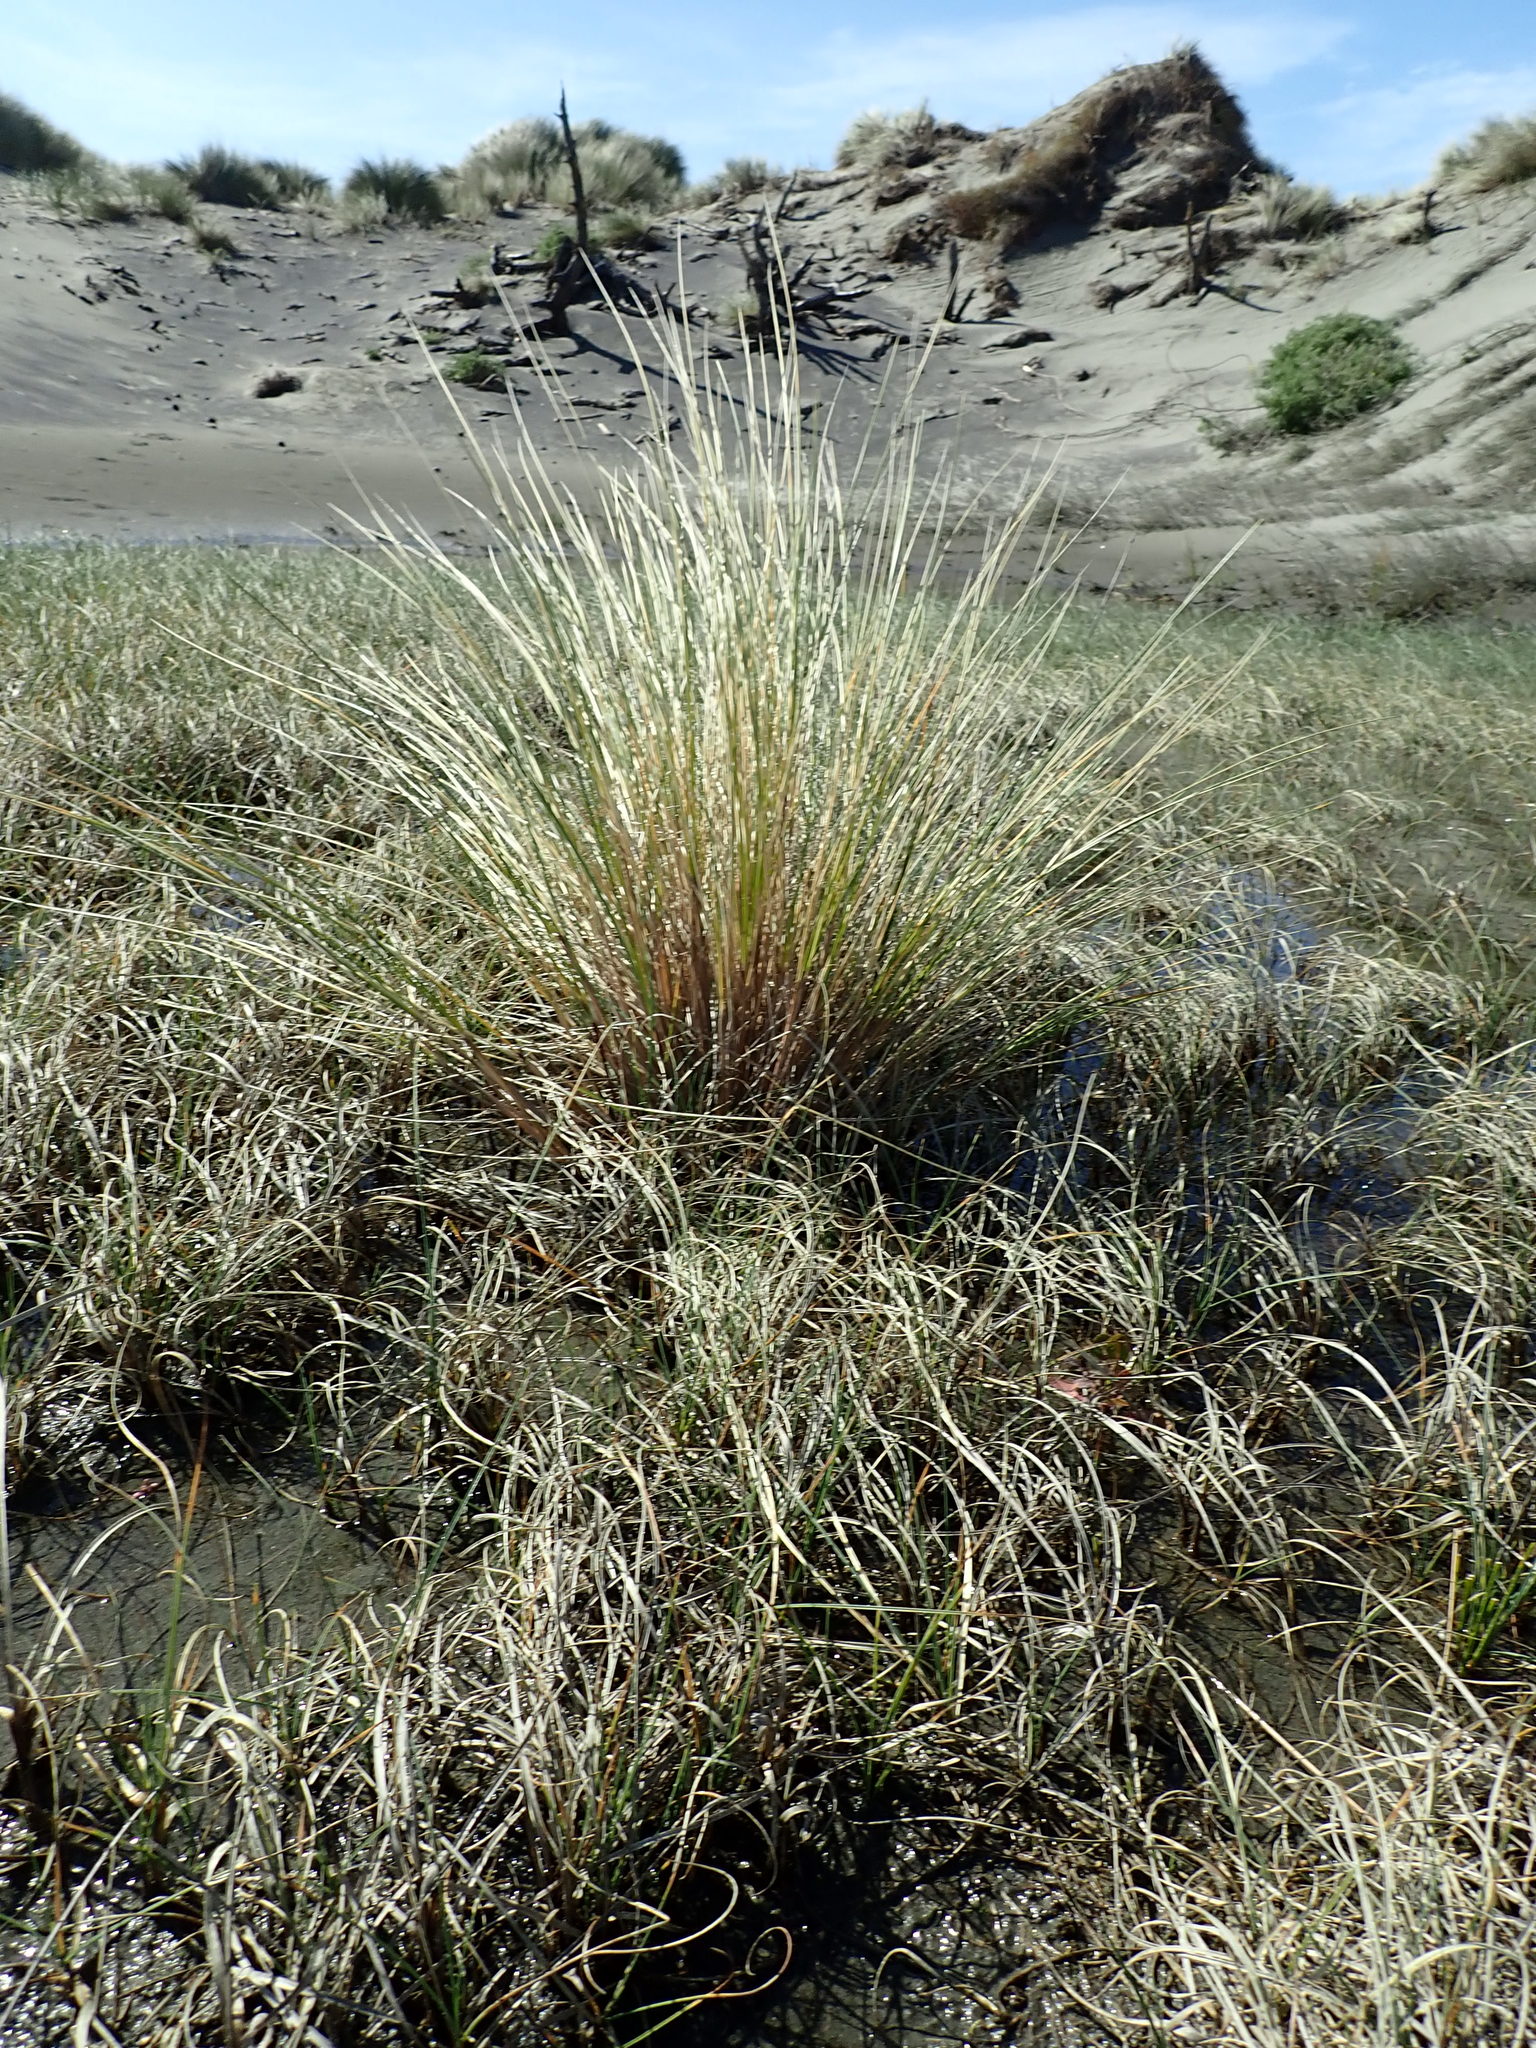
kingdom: Plantae
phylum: Tracheophyta
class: Liliopsida
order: Poales
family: Poaceae
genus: Calamagrostis
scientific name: Calamagrostis arenaria
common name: European beachgrass
